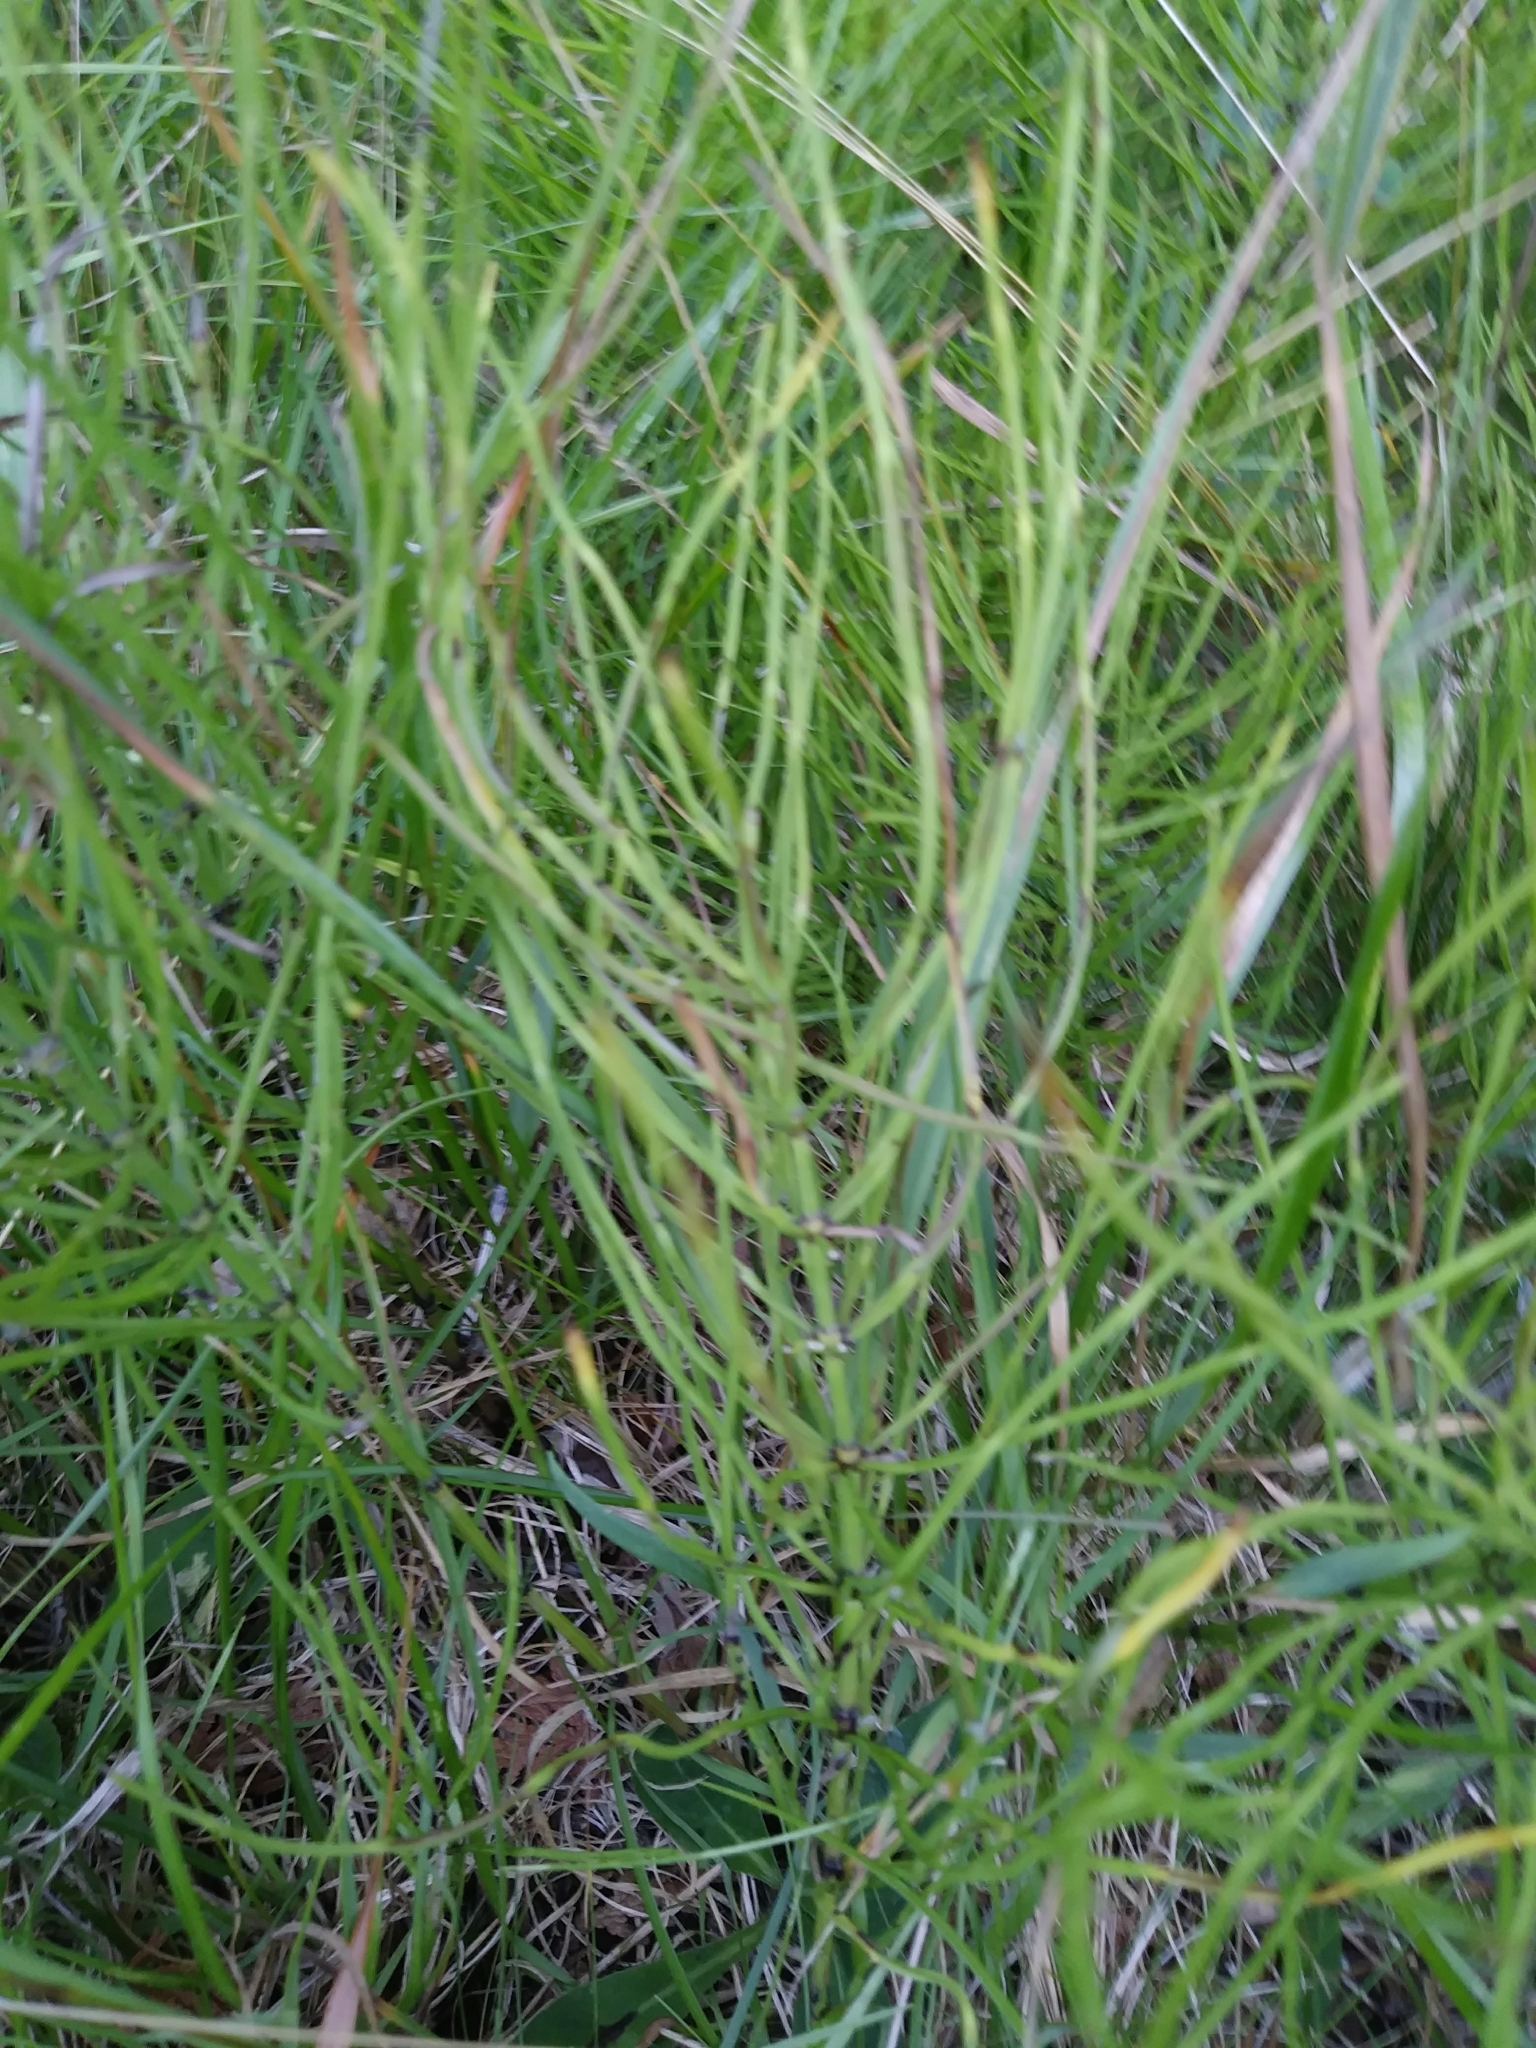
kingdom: Plantae
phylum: Tracheophyta
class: Polypodiopsida
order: Equisetales
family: Equisetaceae
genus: Equisetum
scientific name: Equisetum arvense
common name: Field horsetail
